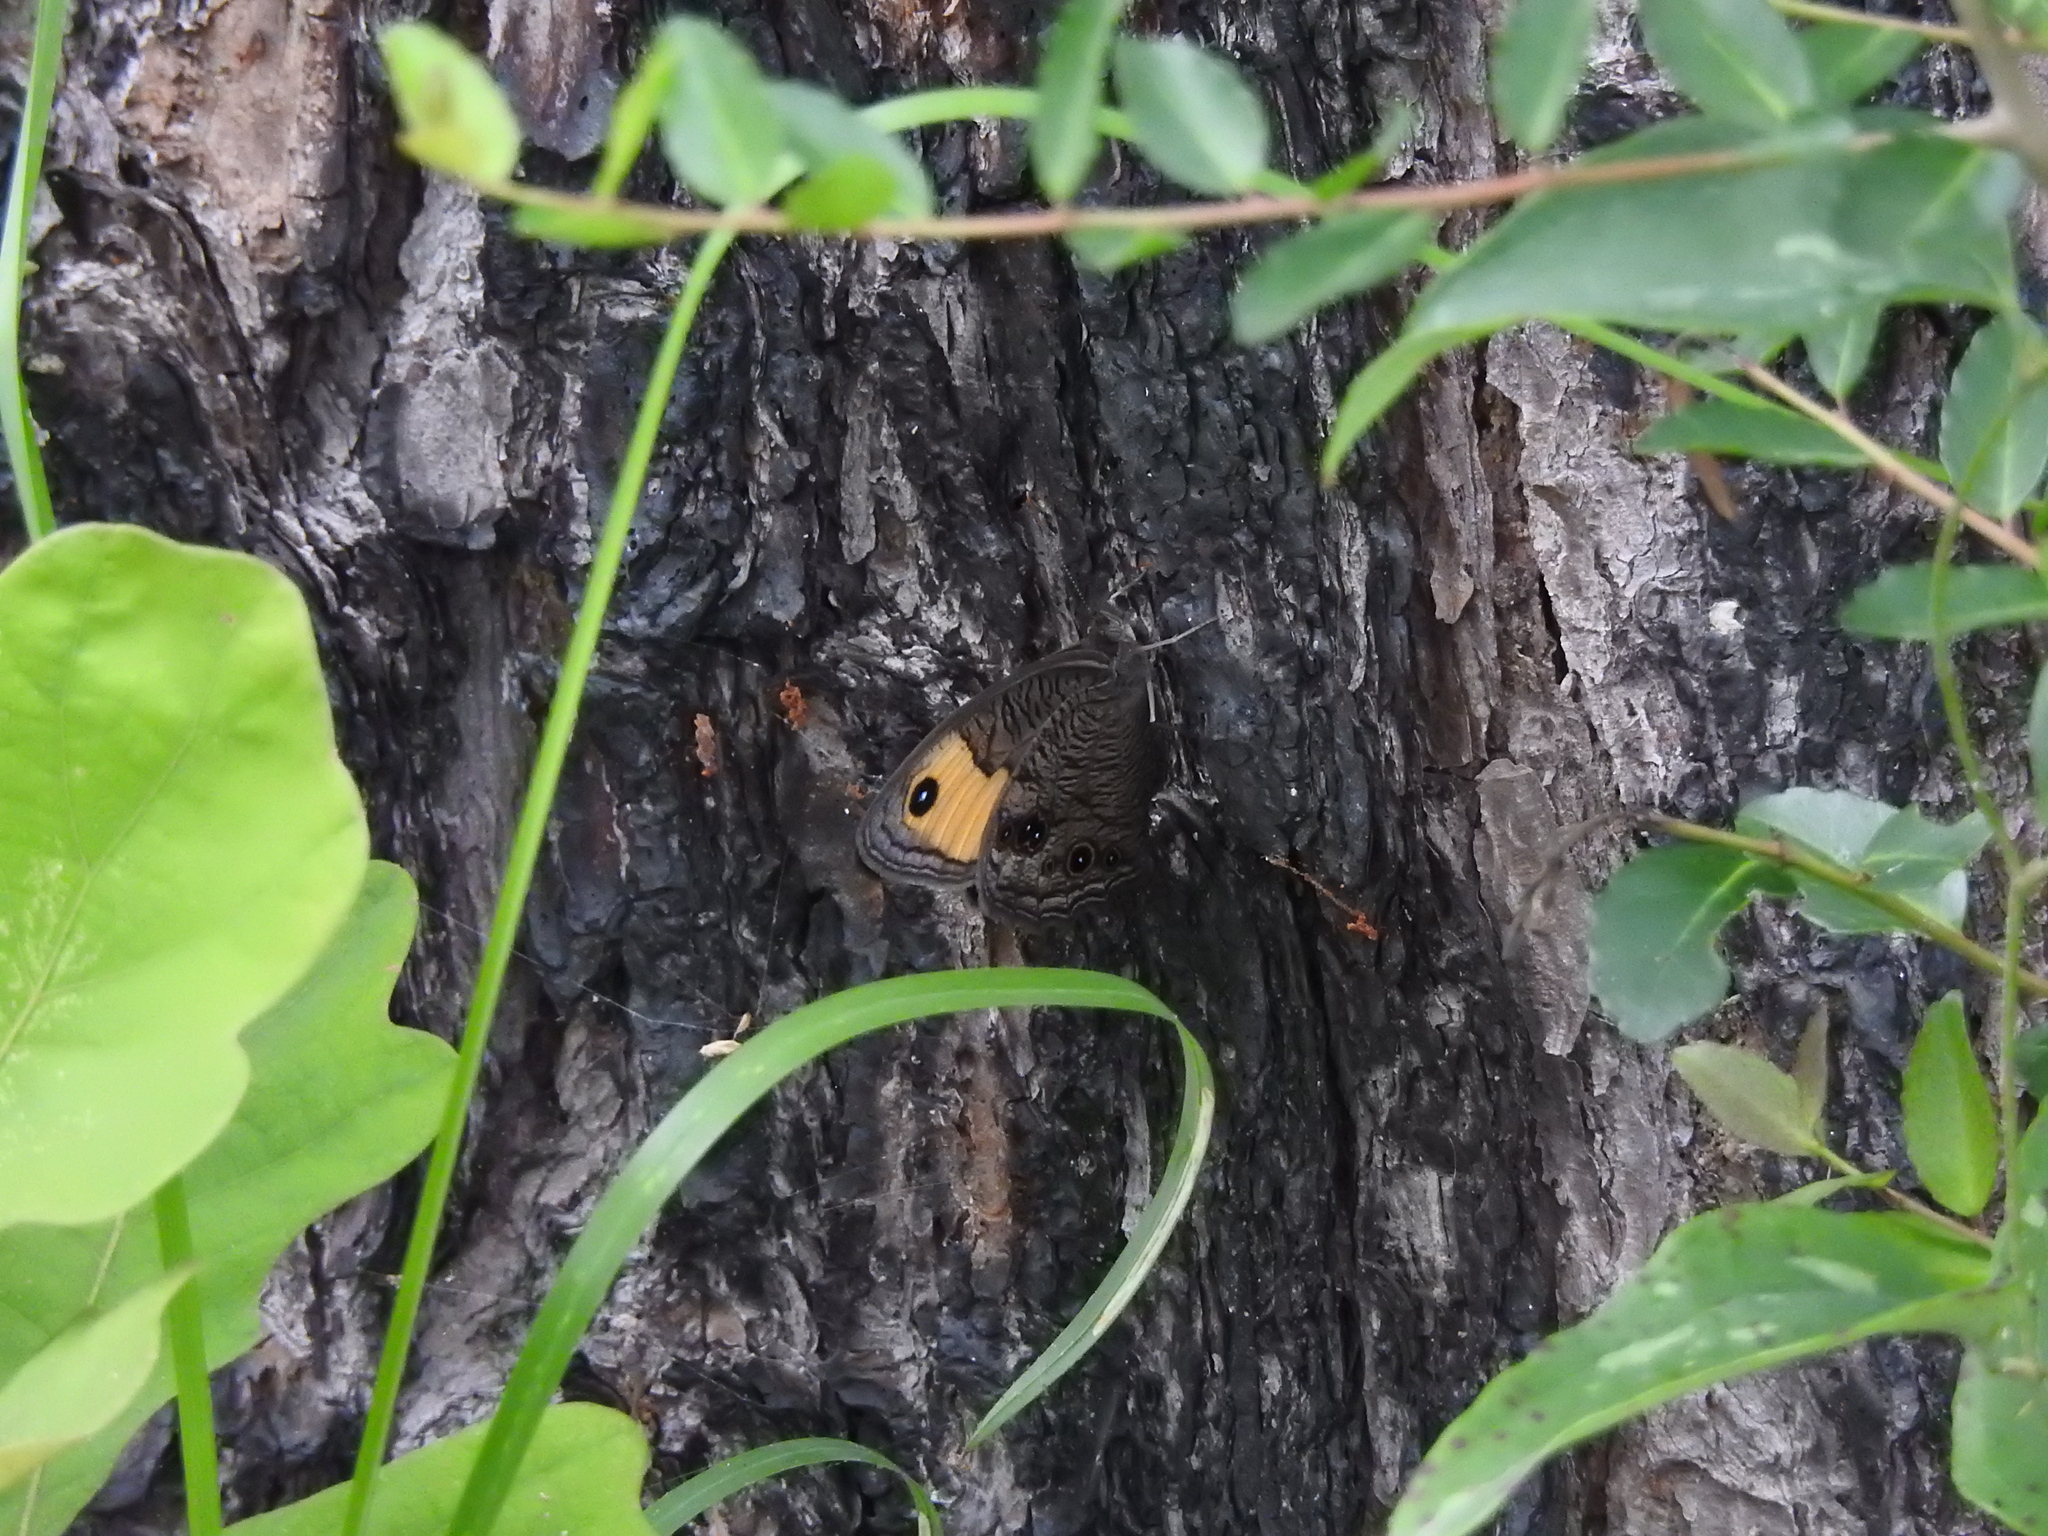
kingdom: Animalia
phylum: Arthropoda
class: Insecta
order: Lepidoptera
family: Nymphalidae
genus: Cercyonis
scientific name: Cercyonis pegala
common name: Common wood-nymph
